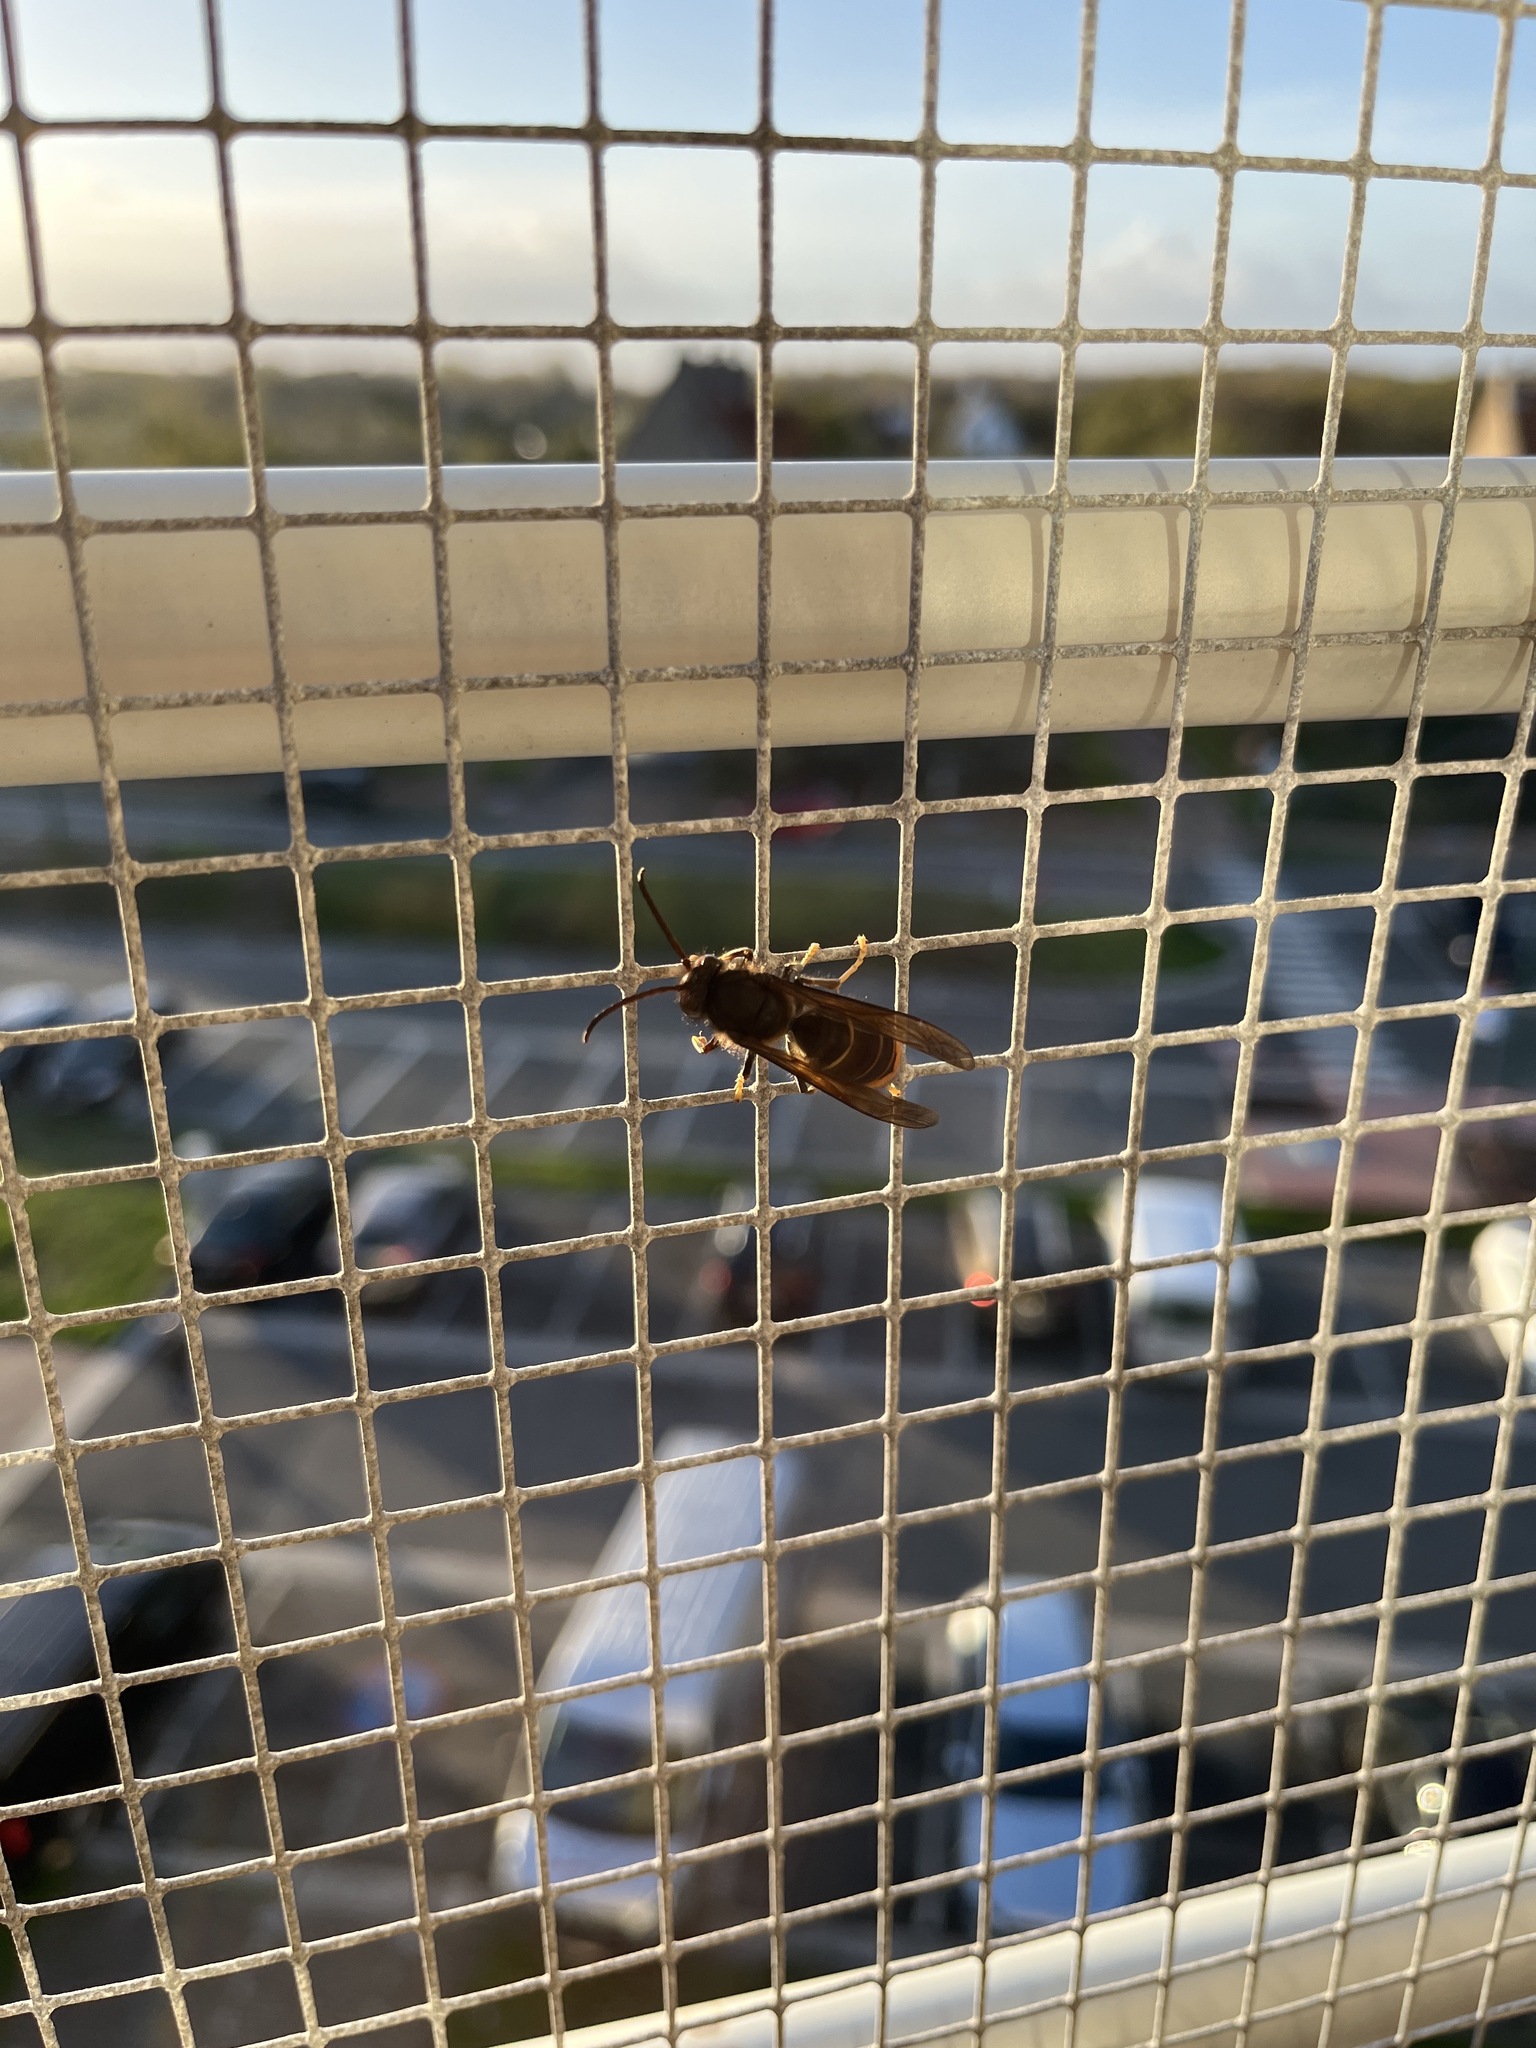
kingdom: Animalia
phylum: Arthropoda
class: Insecta
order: Hymenoptera
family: Vespidae
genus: Vespa
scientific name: Vespa velutina
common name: Asian hornet
